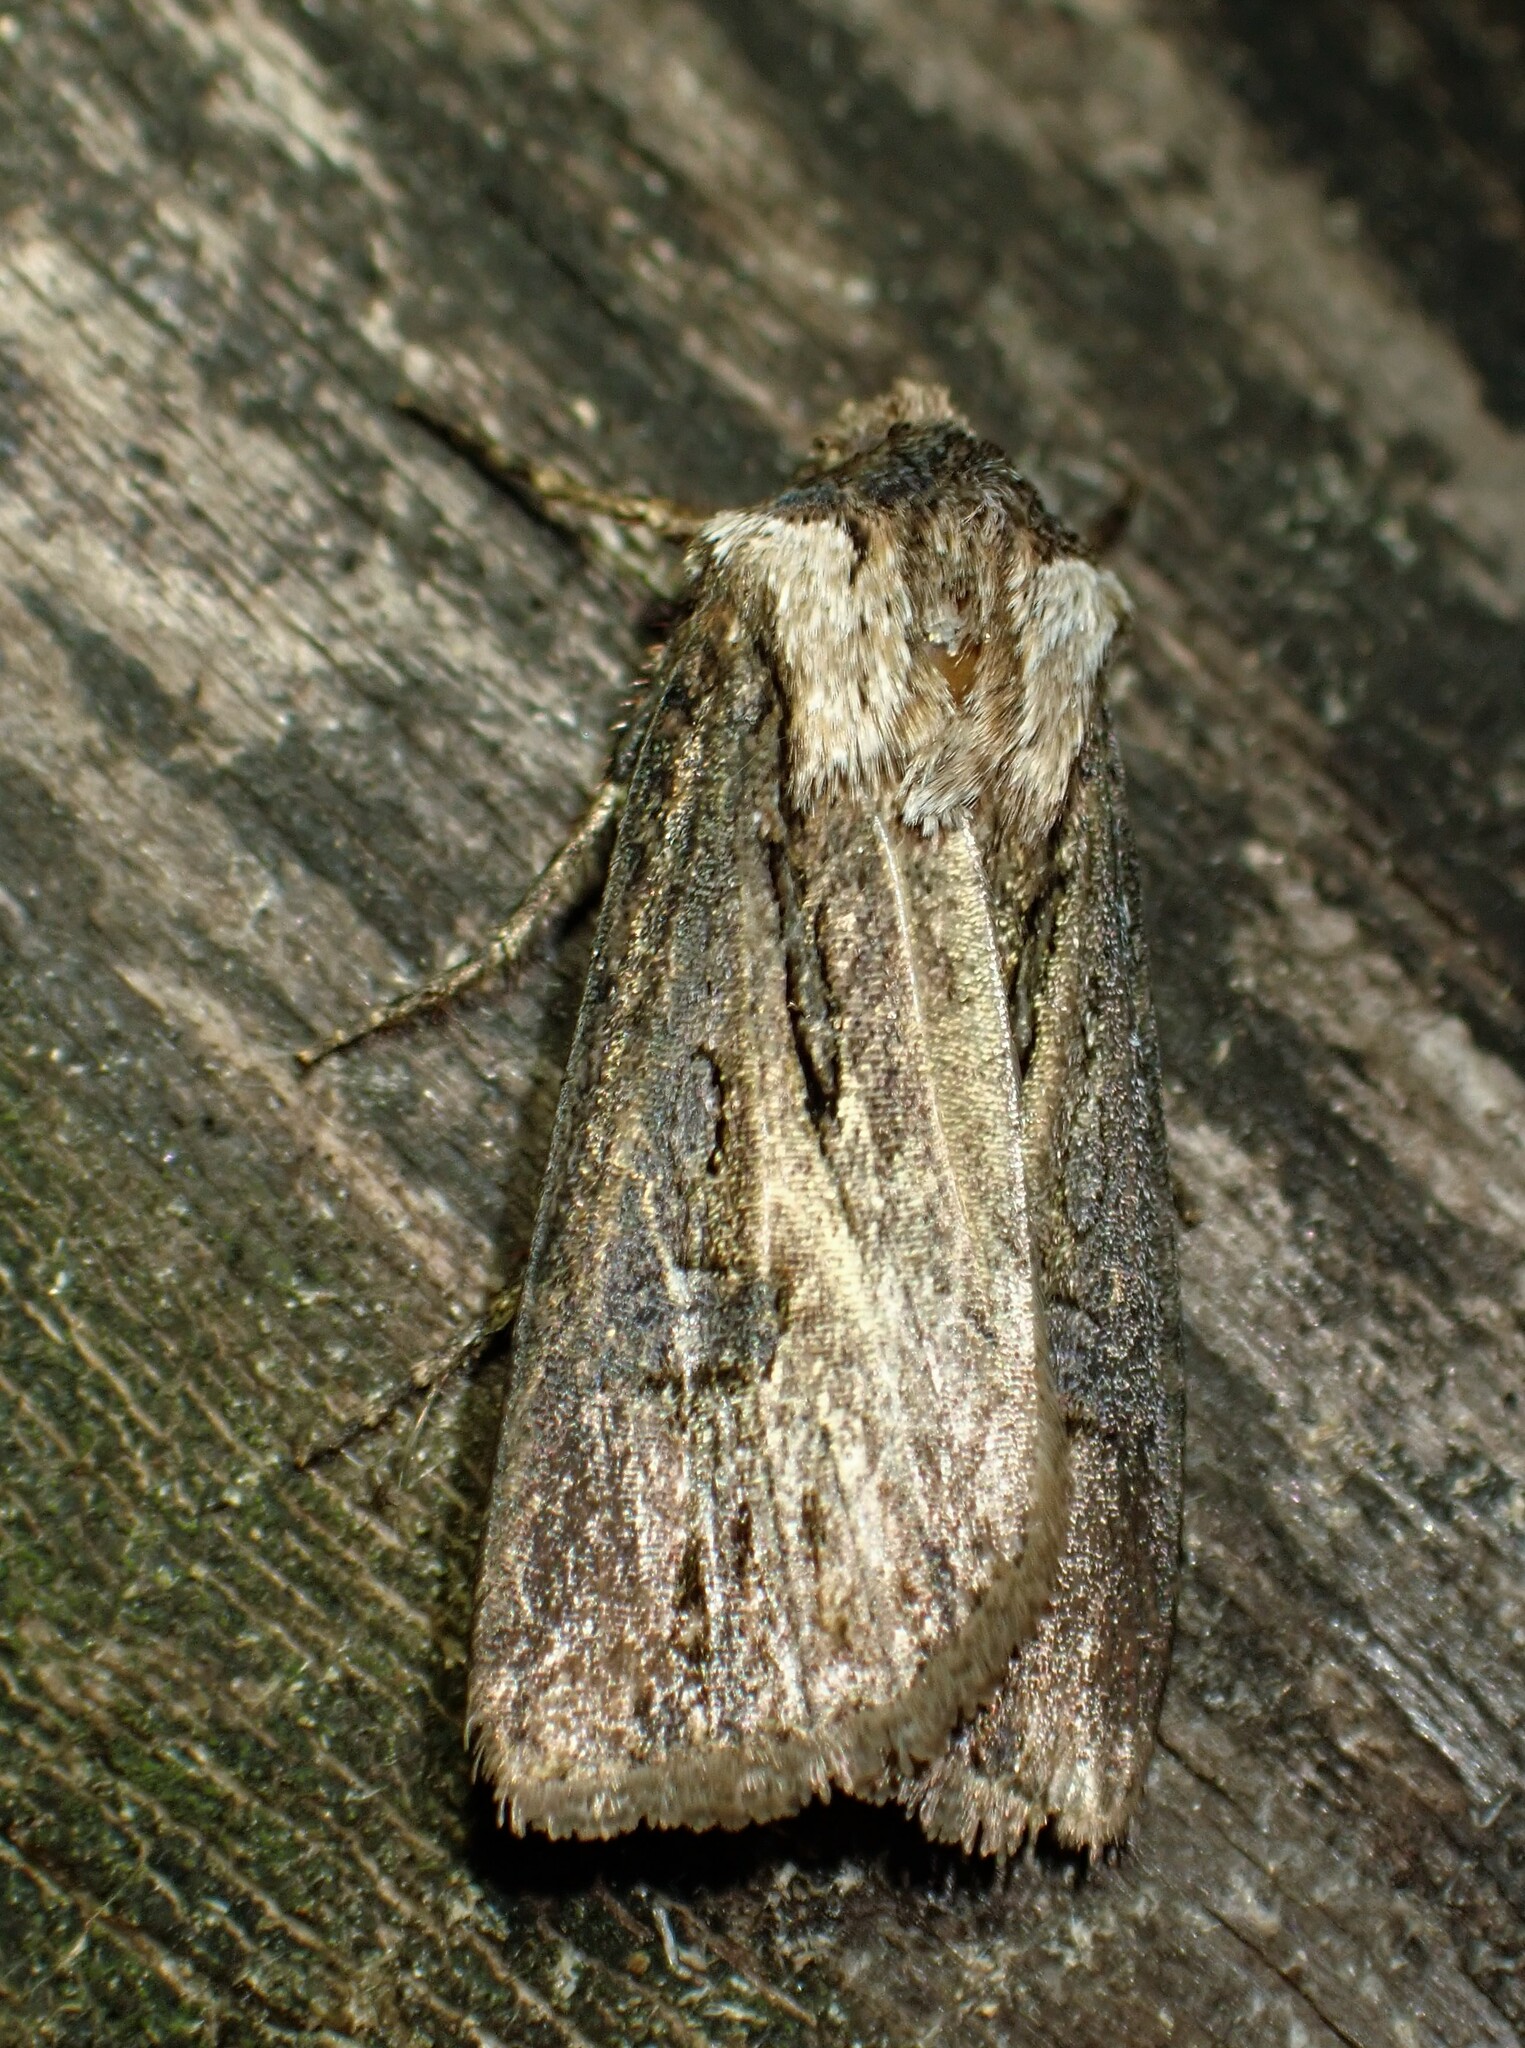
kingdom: Animalia
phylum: Arthropoda
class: Insecta
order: Lepidoptera
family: Noctuidae
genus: Agrotis
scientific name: Agrotis venerabilis
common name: Venerable dart
